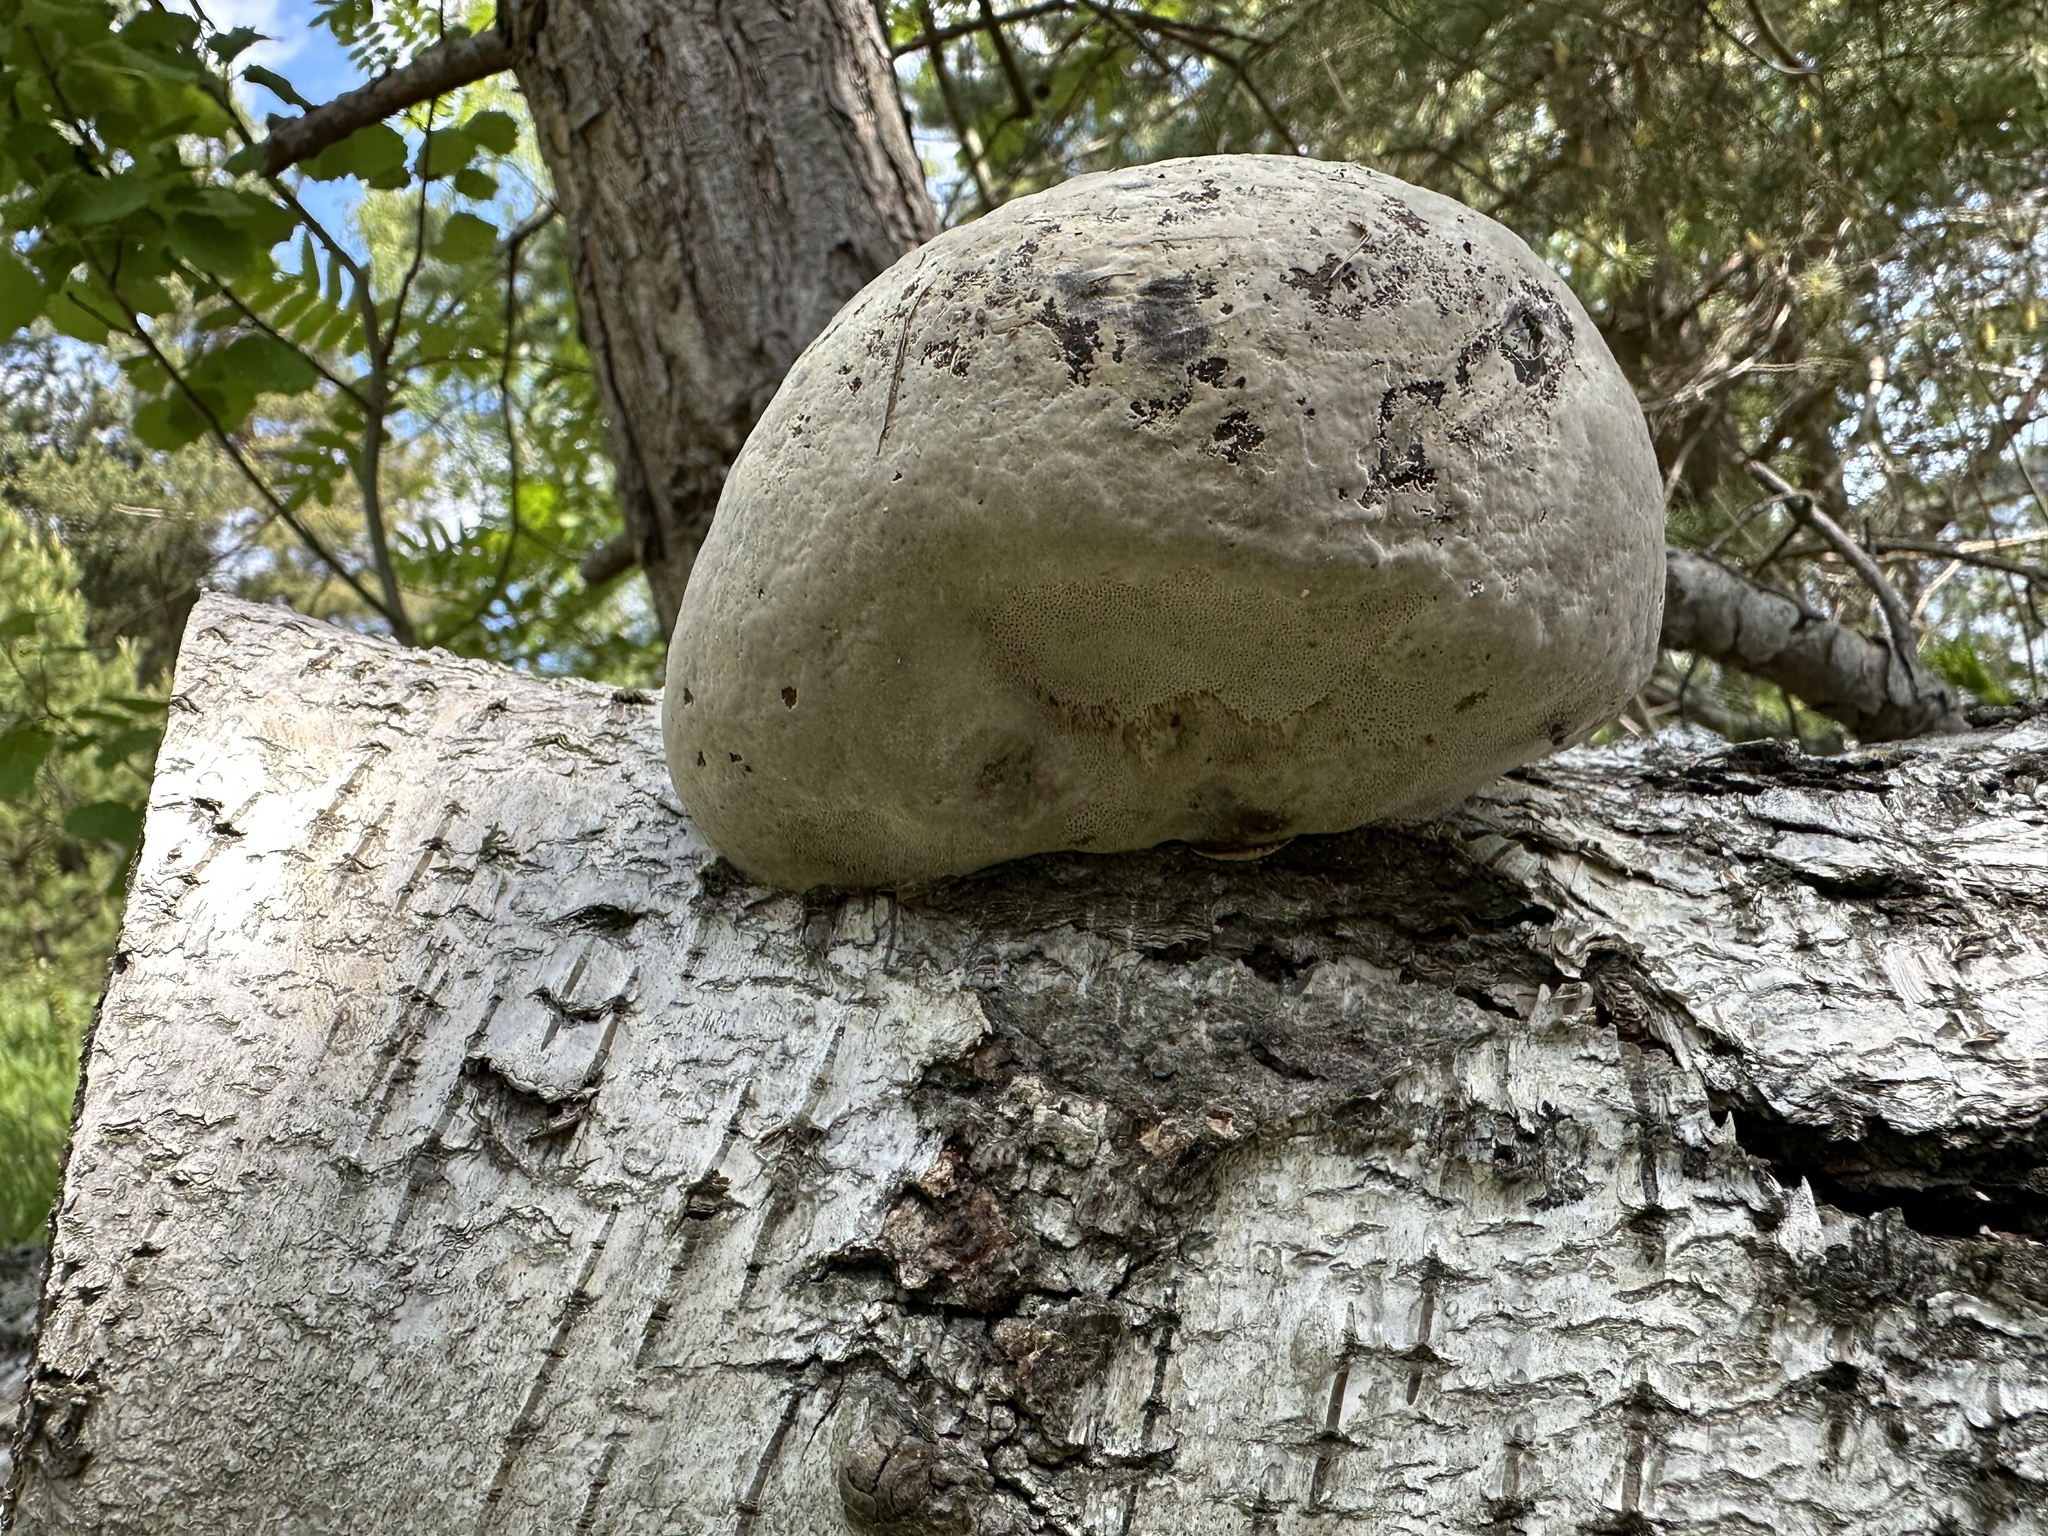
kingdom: Fungi
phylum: Basidiomycota
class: Agaricomycetes
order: Polyporales
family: Polyporaceae
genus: Fomes
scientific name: Fomes fomentarius
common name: Hoof fungus
